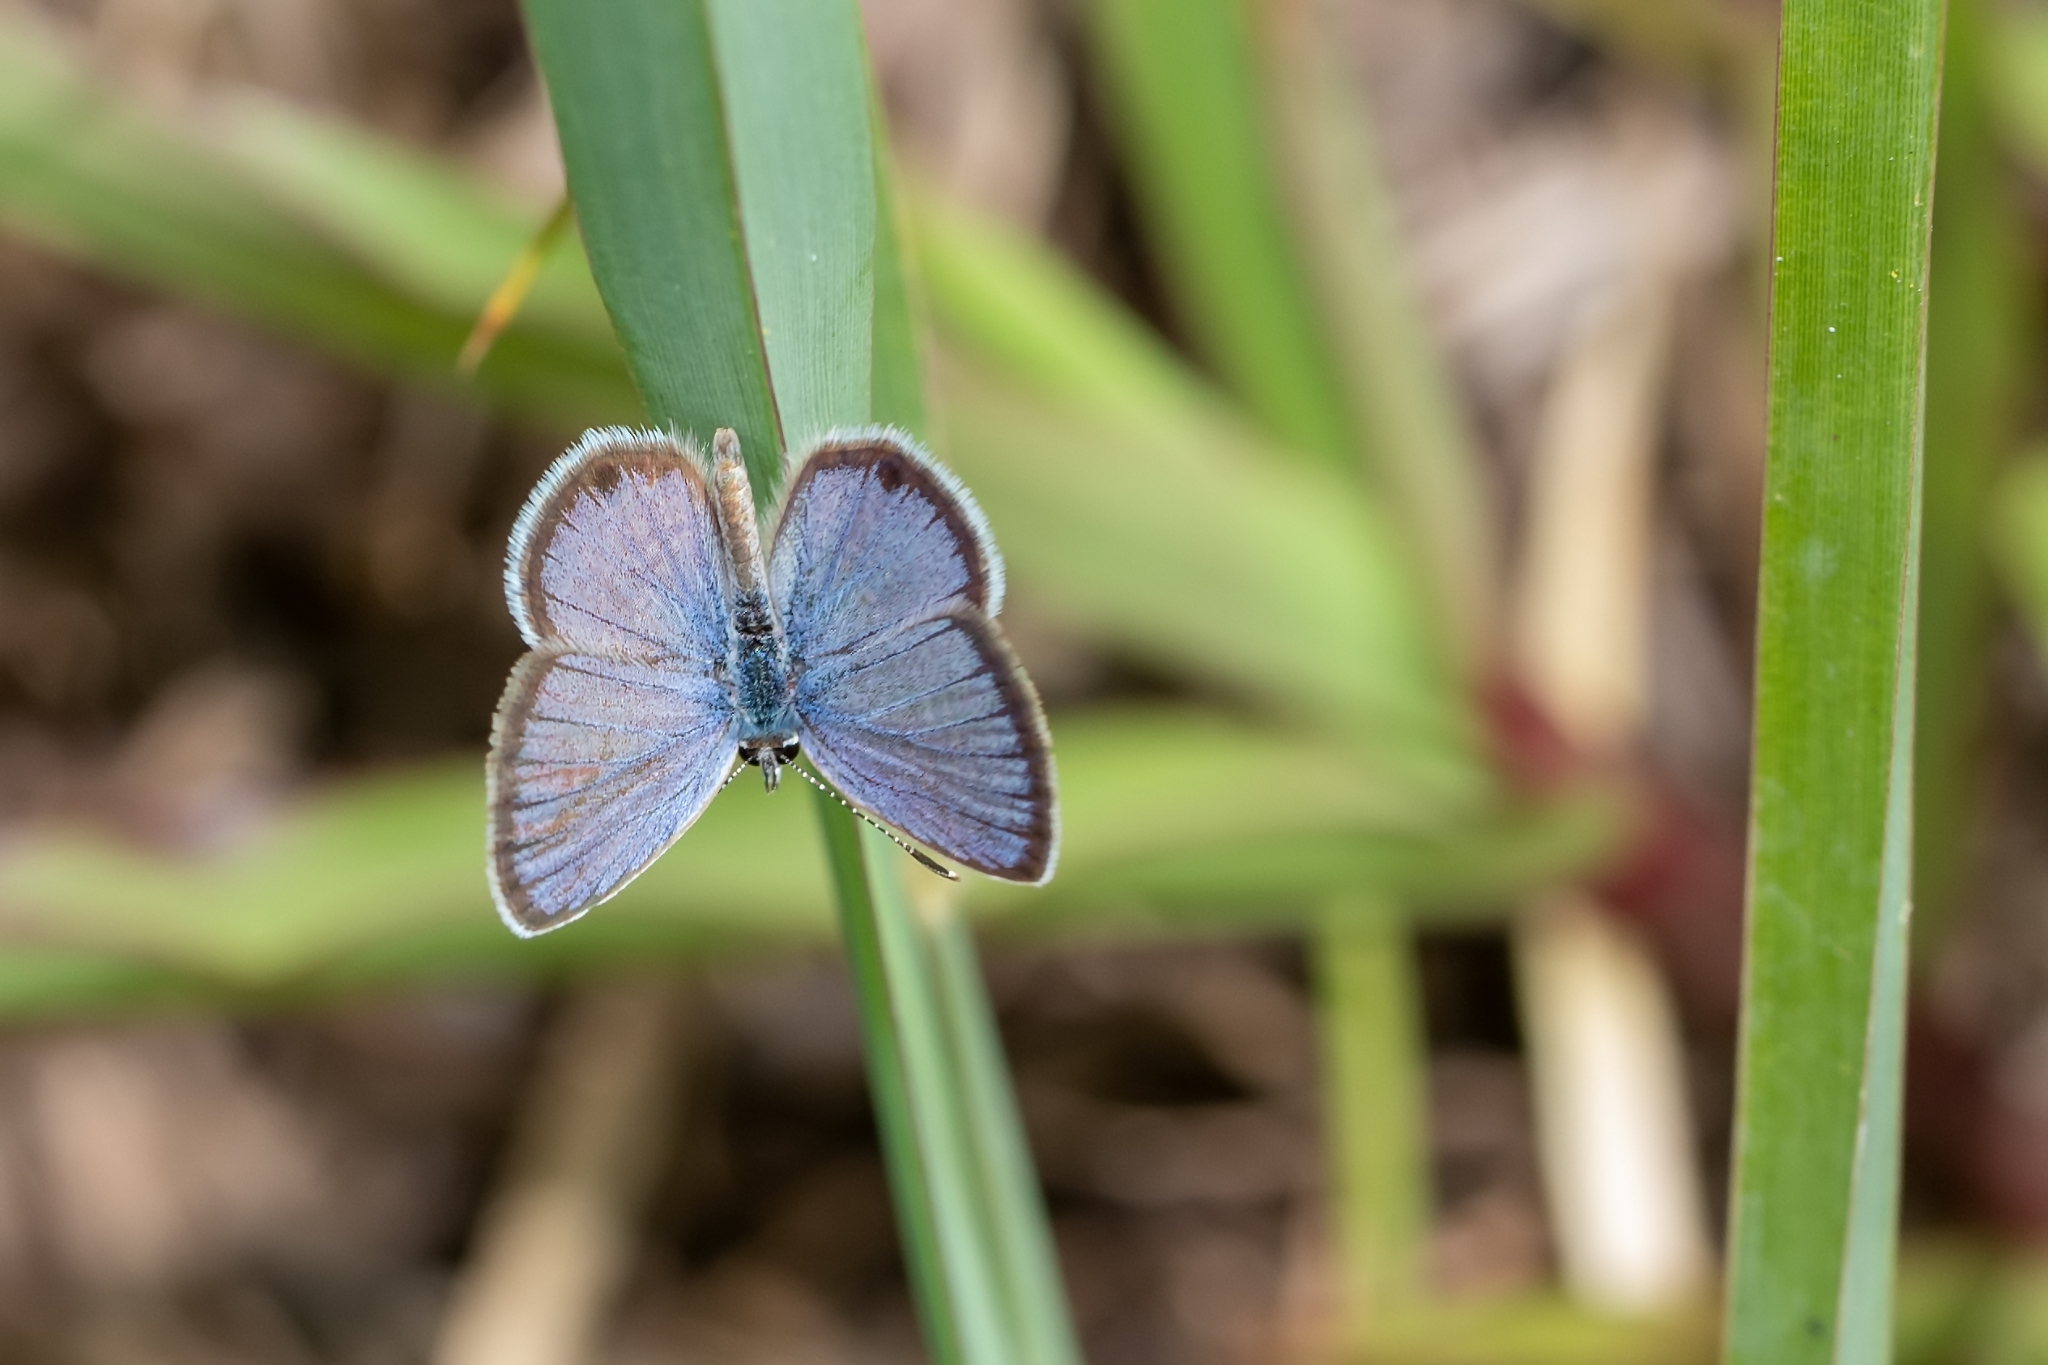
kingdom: Animalia
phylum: Arthropoda
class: Insecta
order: Lepidoptera
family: Lycaenidae
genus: Hemiargus
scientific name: Hemiargus ceraunus
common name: Ceraunus blue
